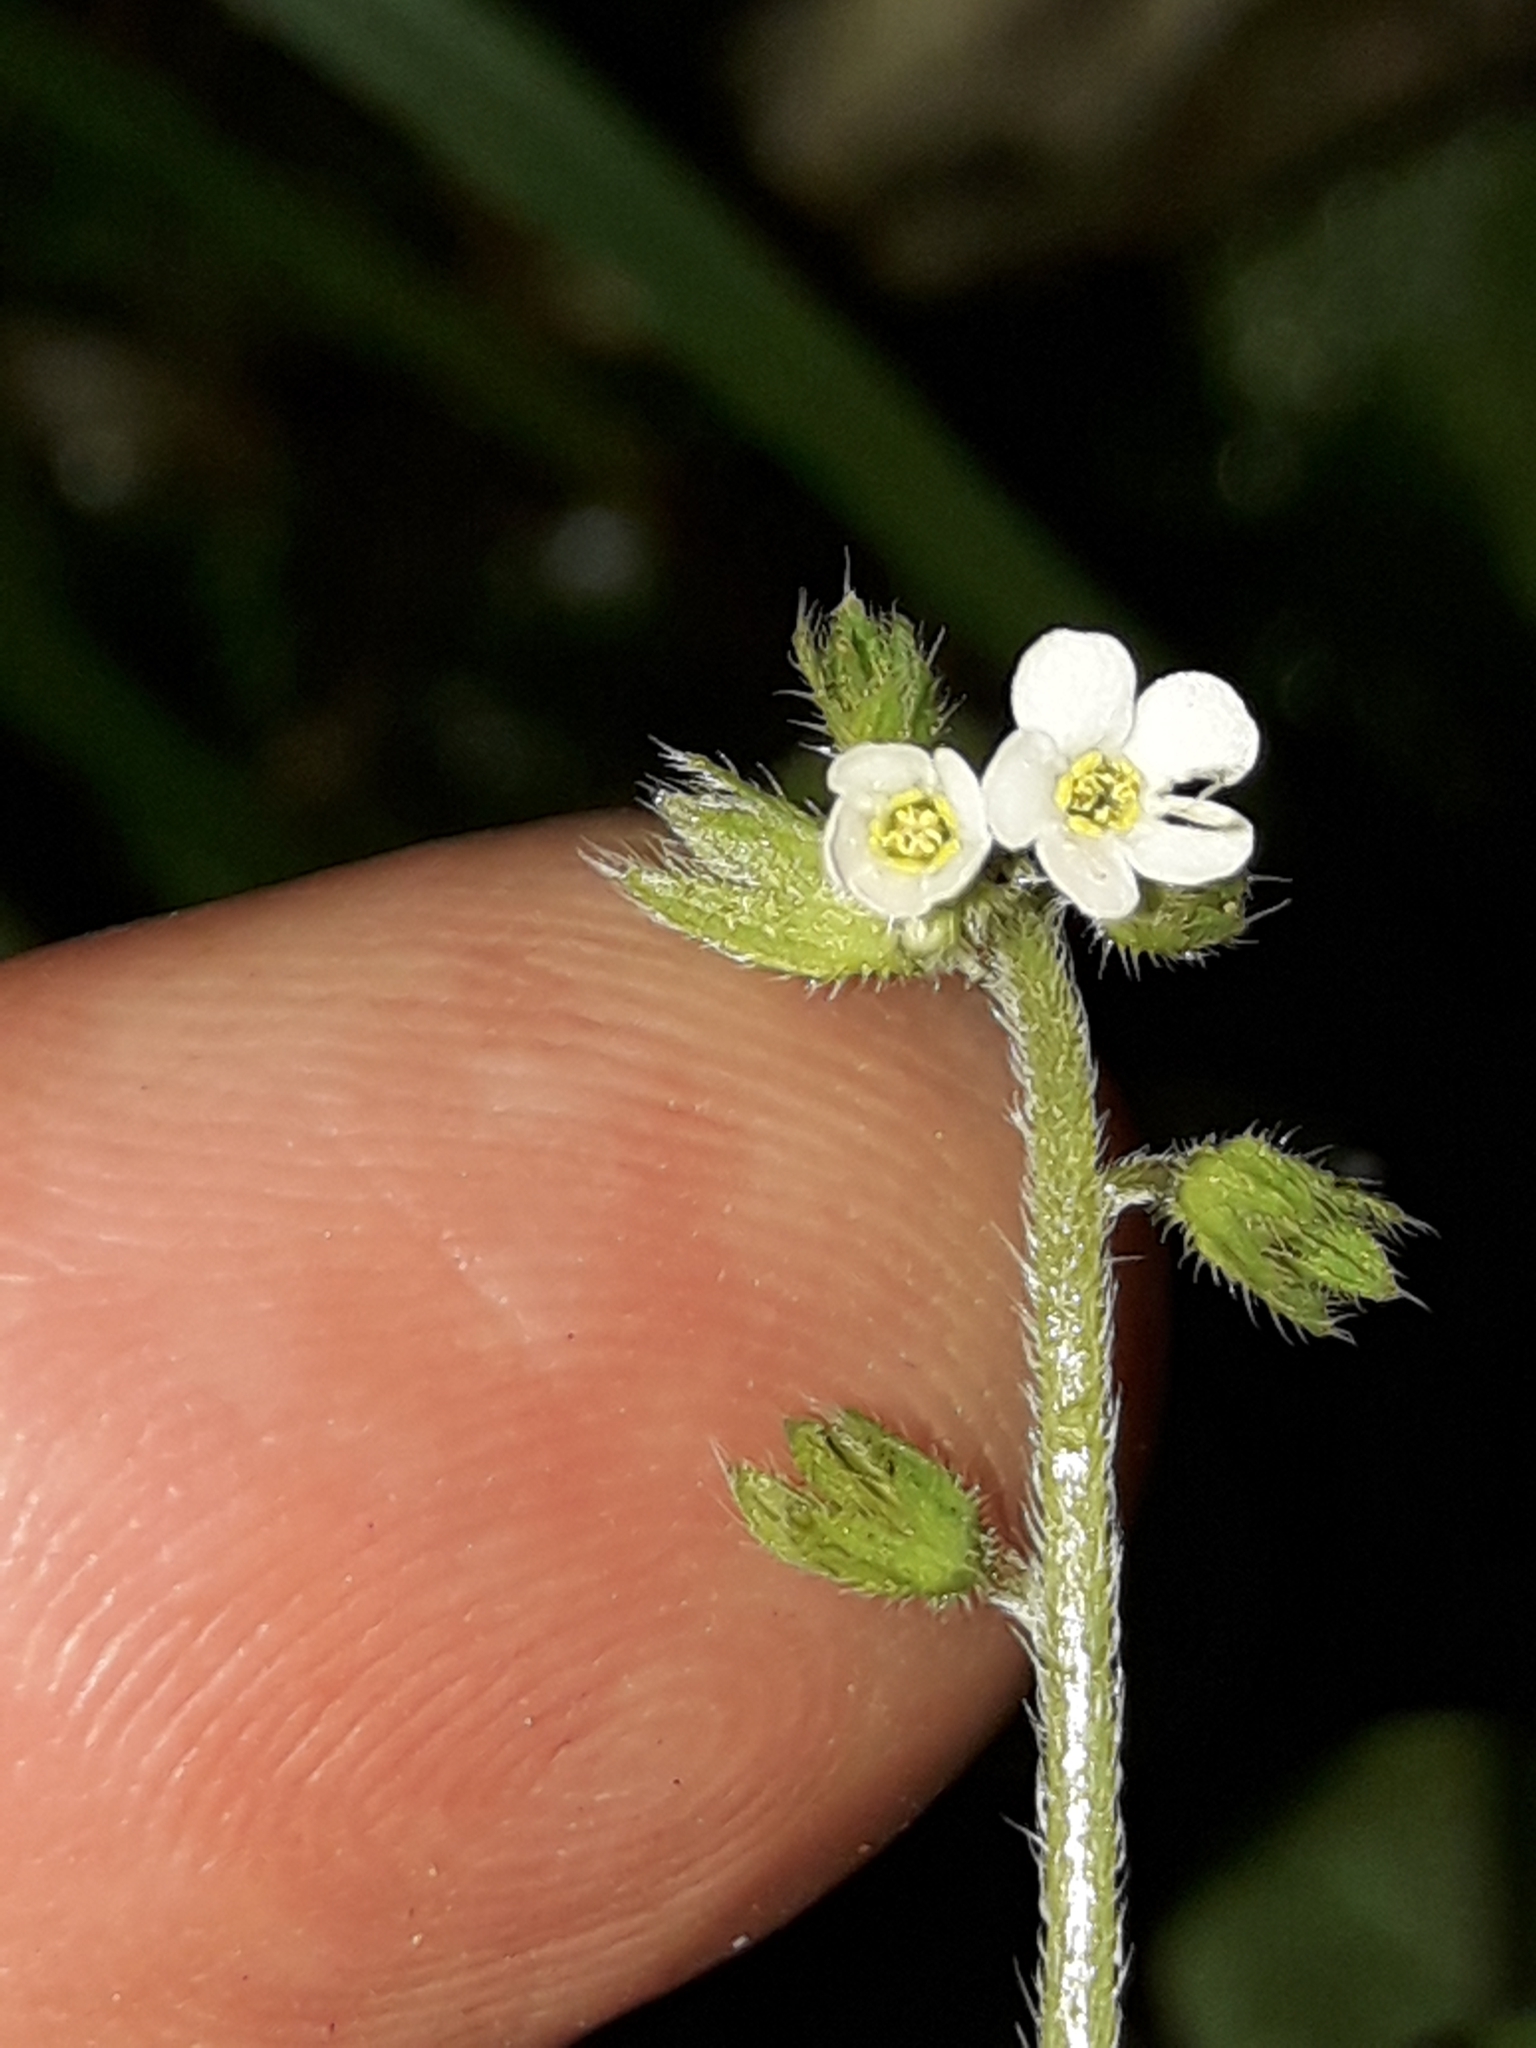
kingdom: Plantae
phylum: Tracheophyta
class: Magnoliopsida
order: Boraginales
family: Boraginaceae
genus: Myosotis
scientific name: Myosotis forsteri
